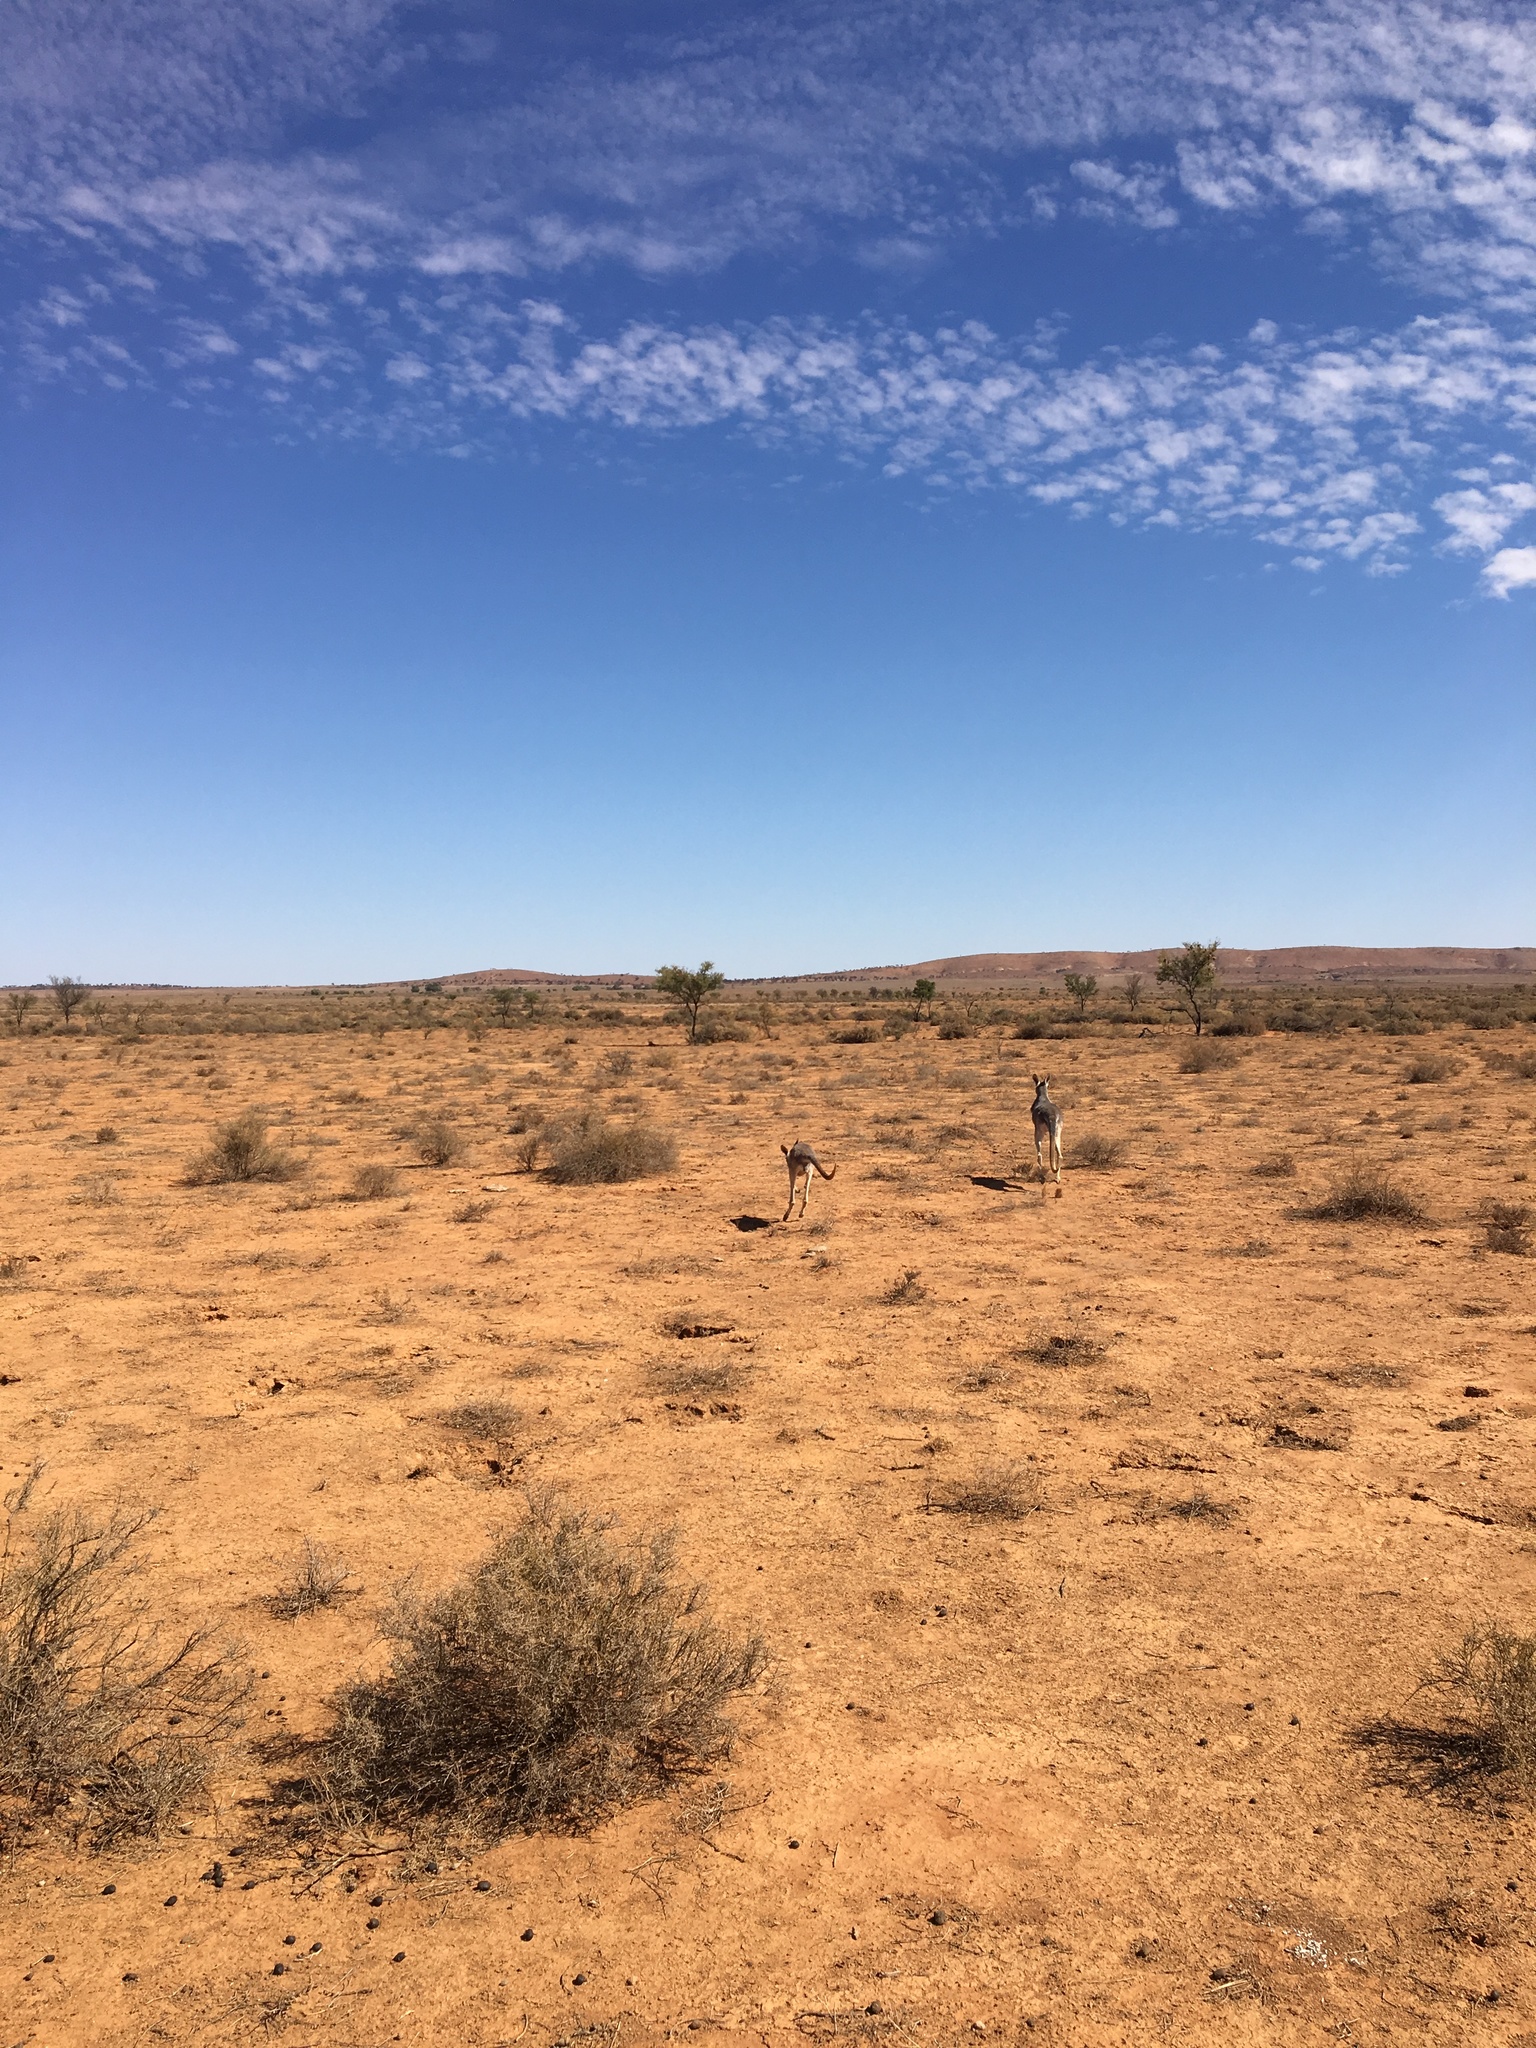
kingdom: Animalia
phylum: Chordata
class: Mammalia
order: Diprotodontia
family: Macropodidae
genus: Macropus
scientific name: Macropus rufus
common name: Red kangaroo
